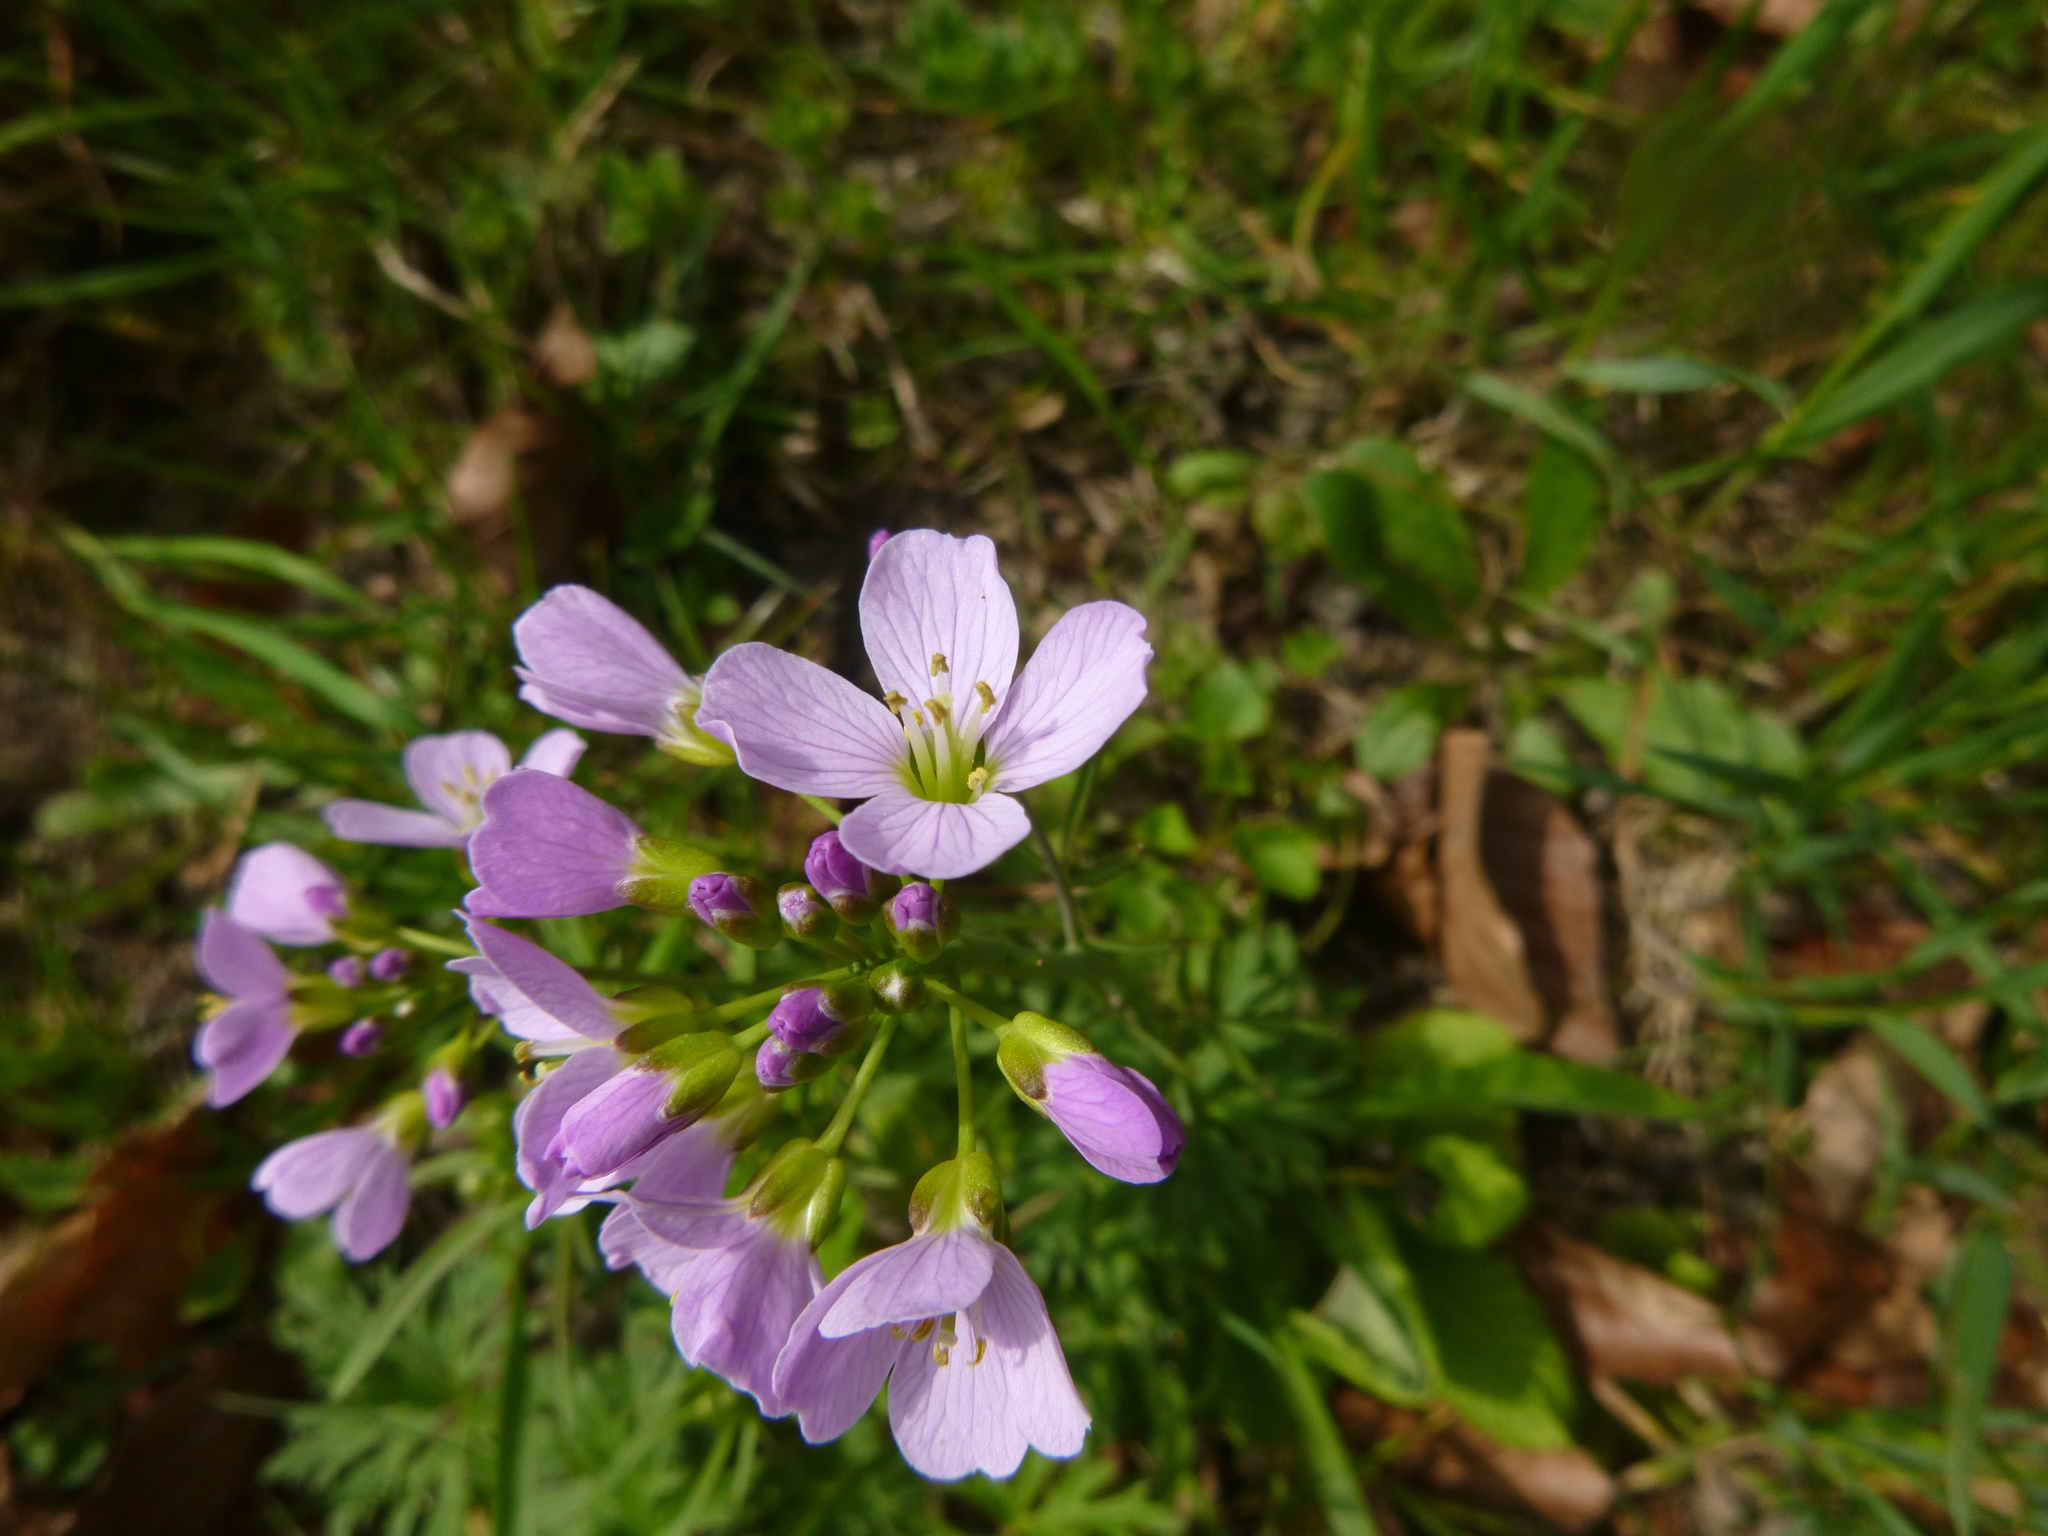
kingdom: Plantae
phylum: Tracheophyta
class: Magnoliopsida
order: Brassicales
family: Brassicaceae
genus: Cardamine
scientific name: Cardamine pratensis
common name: Cuckoo flower
